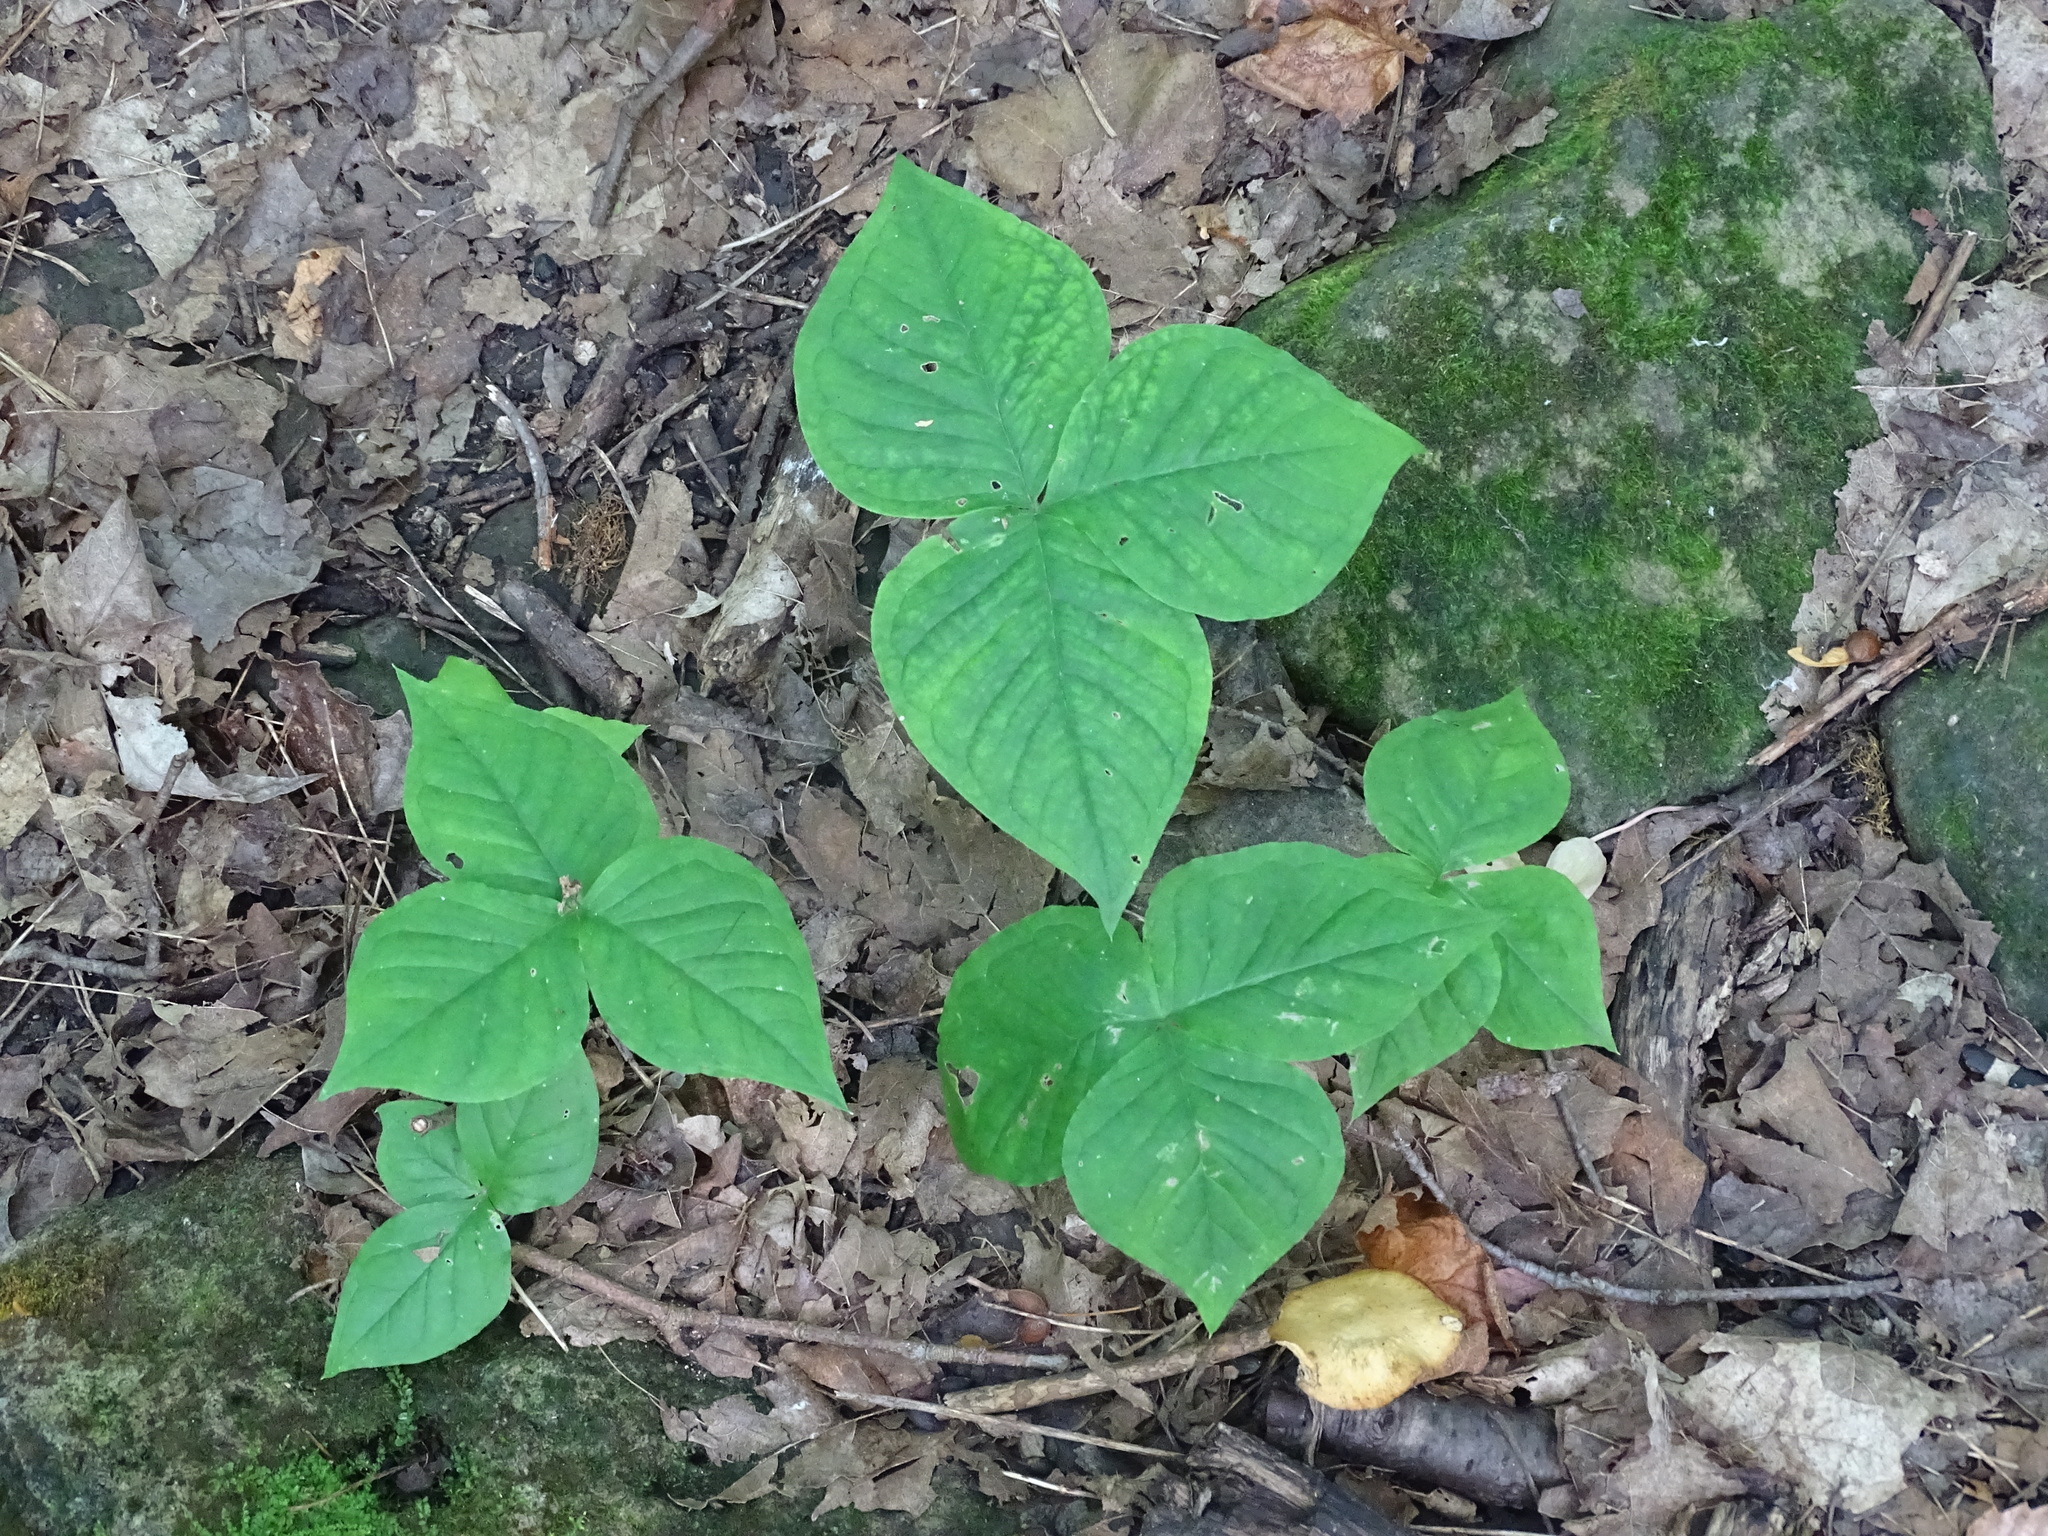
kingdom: Plantae
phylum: Tracheophyta
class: Liliopsida
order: Alismatales
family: Araceae
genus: Arisaema
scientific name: Arisaema triphyllum
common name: Jack-in-the-pulpit
